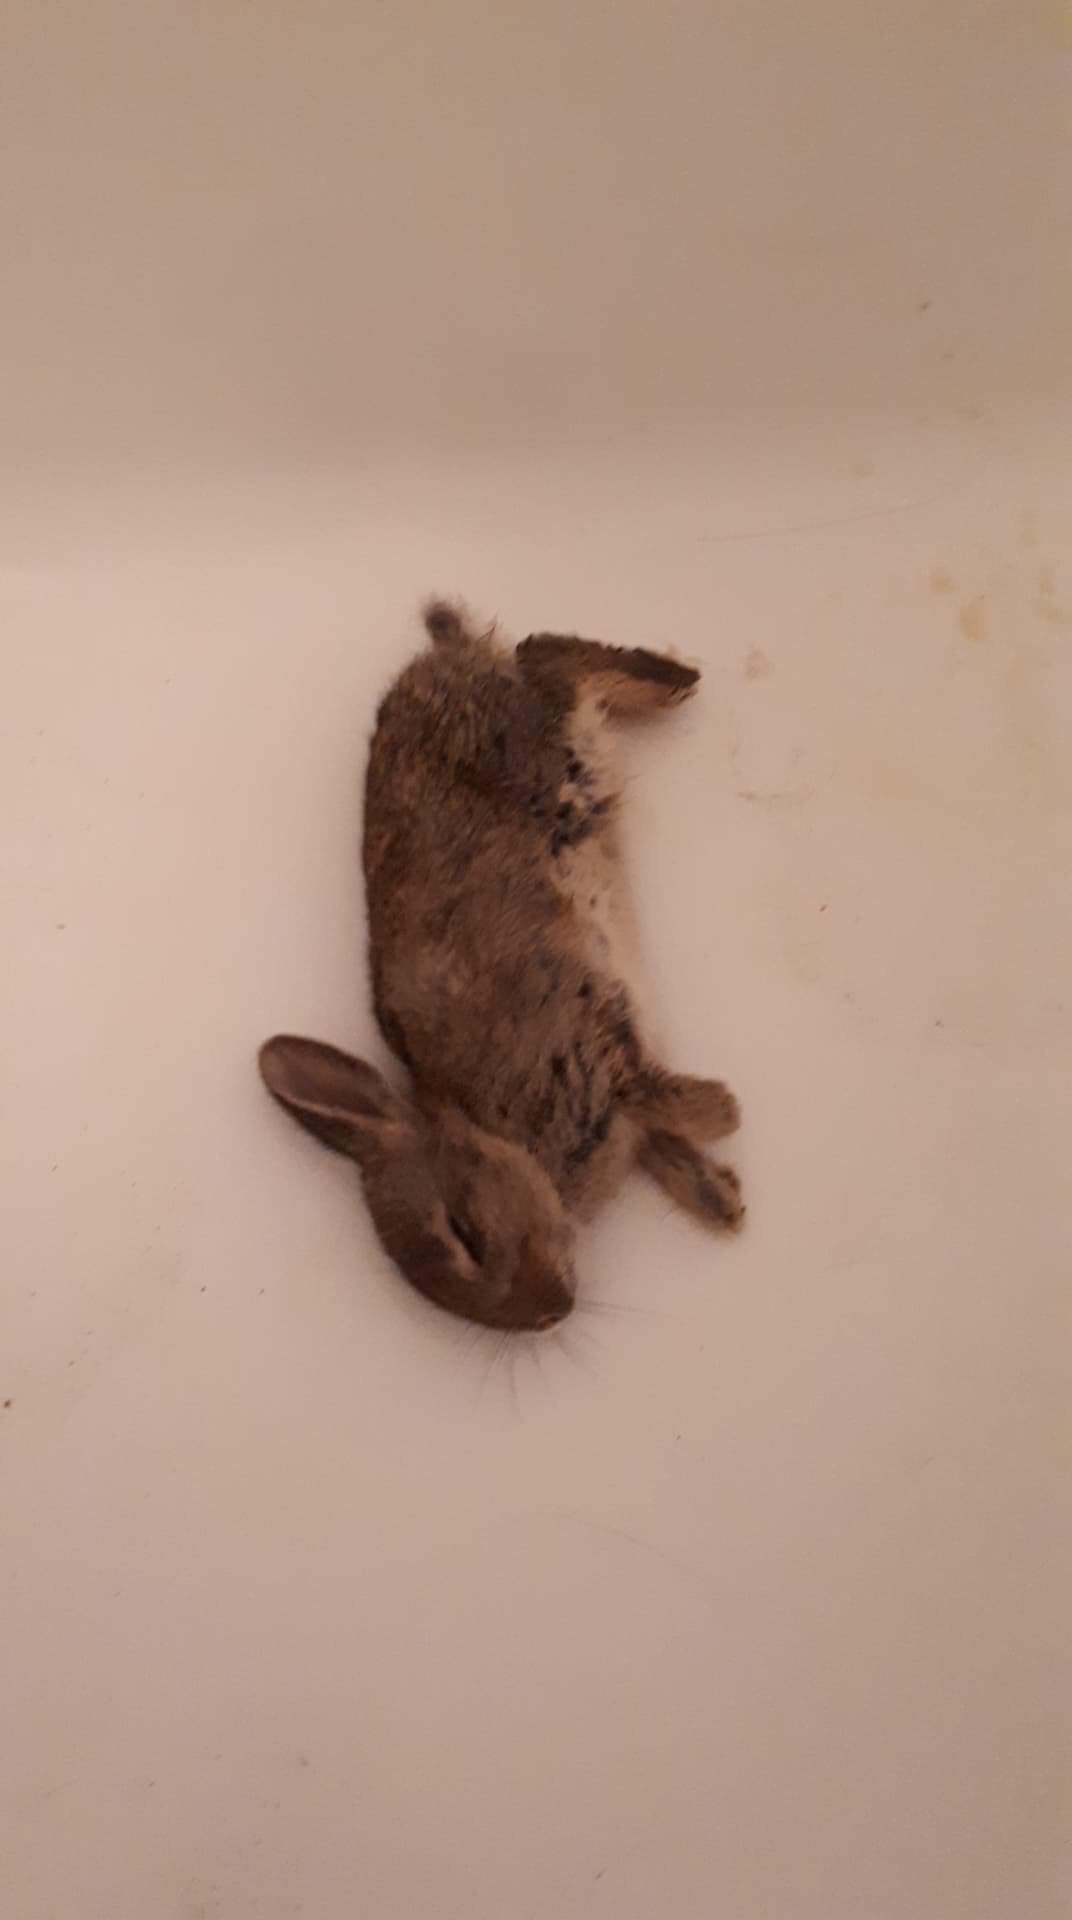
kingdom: Animalia
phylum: Chordata
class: Mammalia
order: Lagomorpha
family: Leporidae
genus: Oryctolagus
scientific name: Oryctolagus cuniculus
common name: European rabbit
